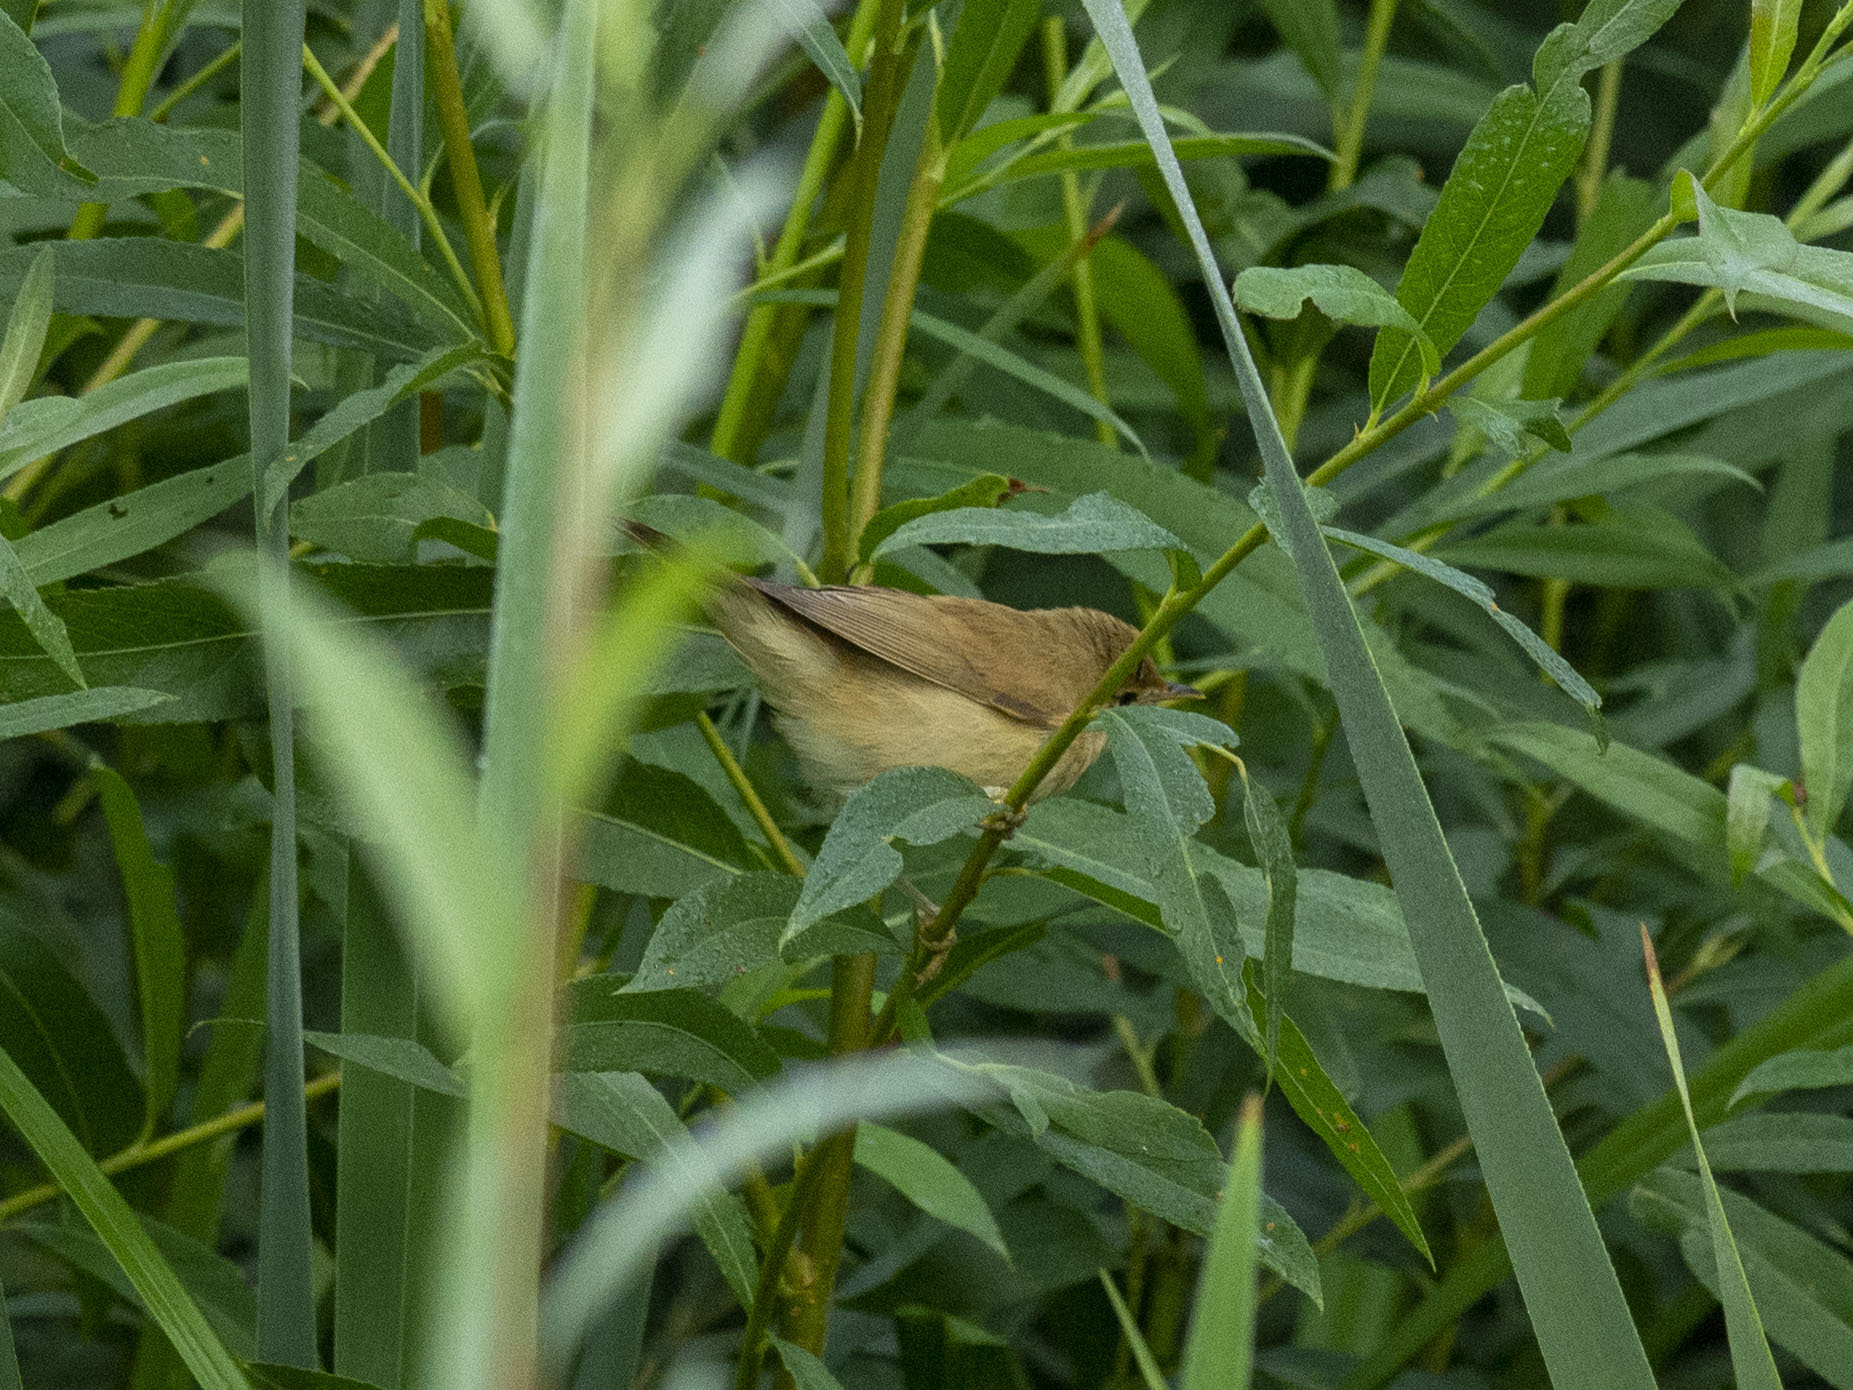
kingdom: Animalia
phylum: Chordata
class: Aves
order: Passeriformes
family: Acrocephalidae
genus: Acrocephalus
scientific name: Acrocephalus palustris
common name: Marsh warbler
